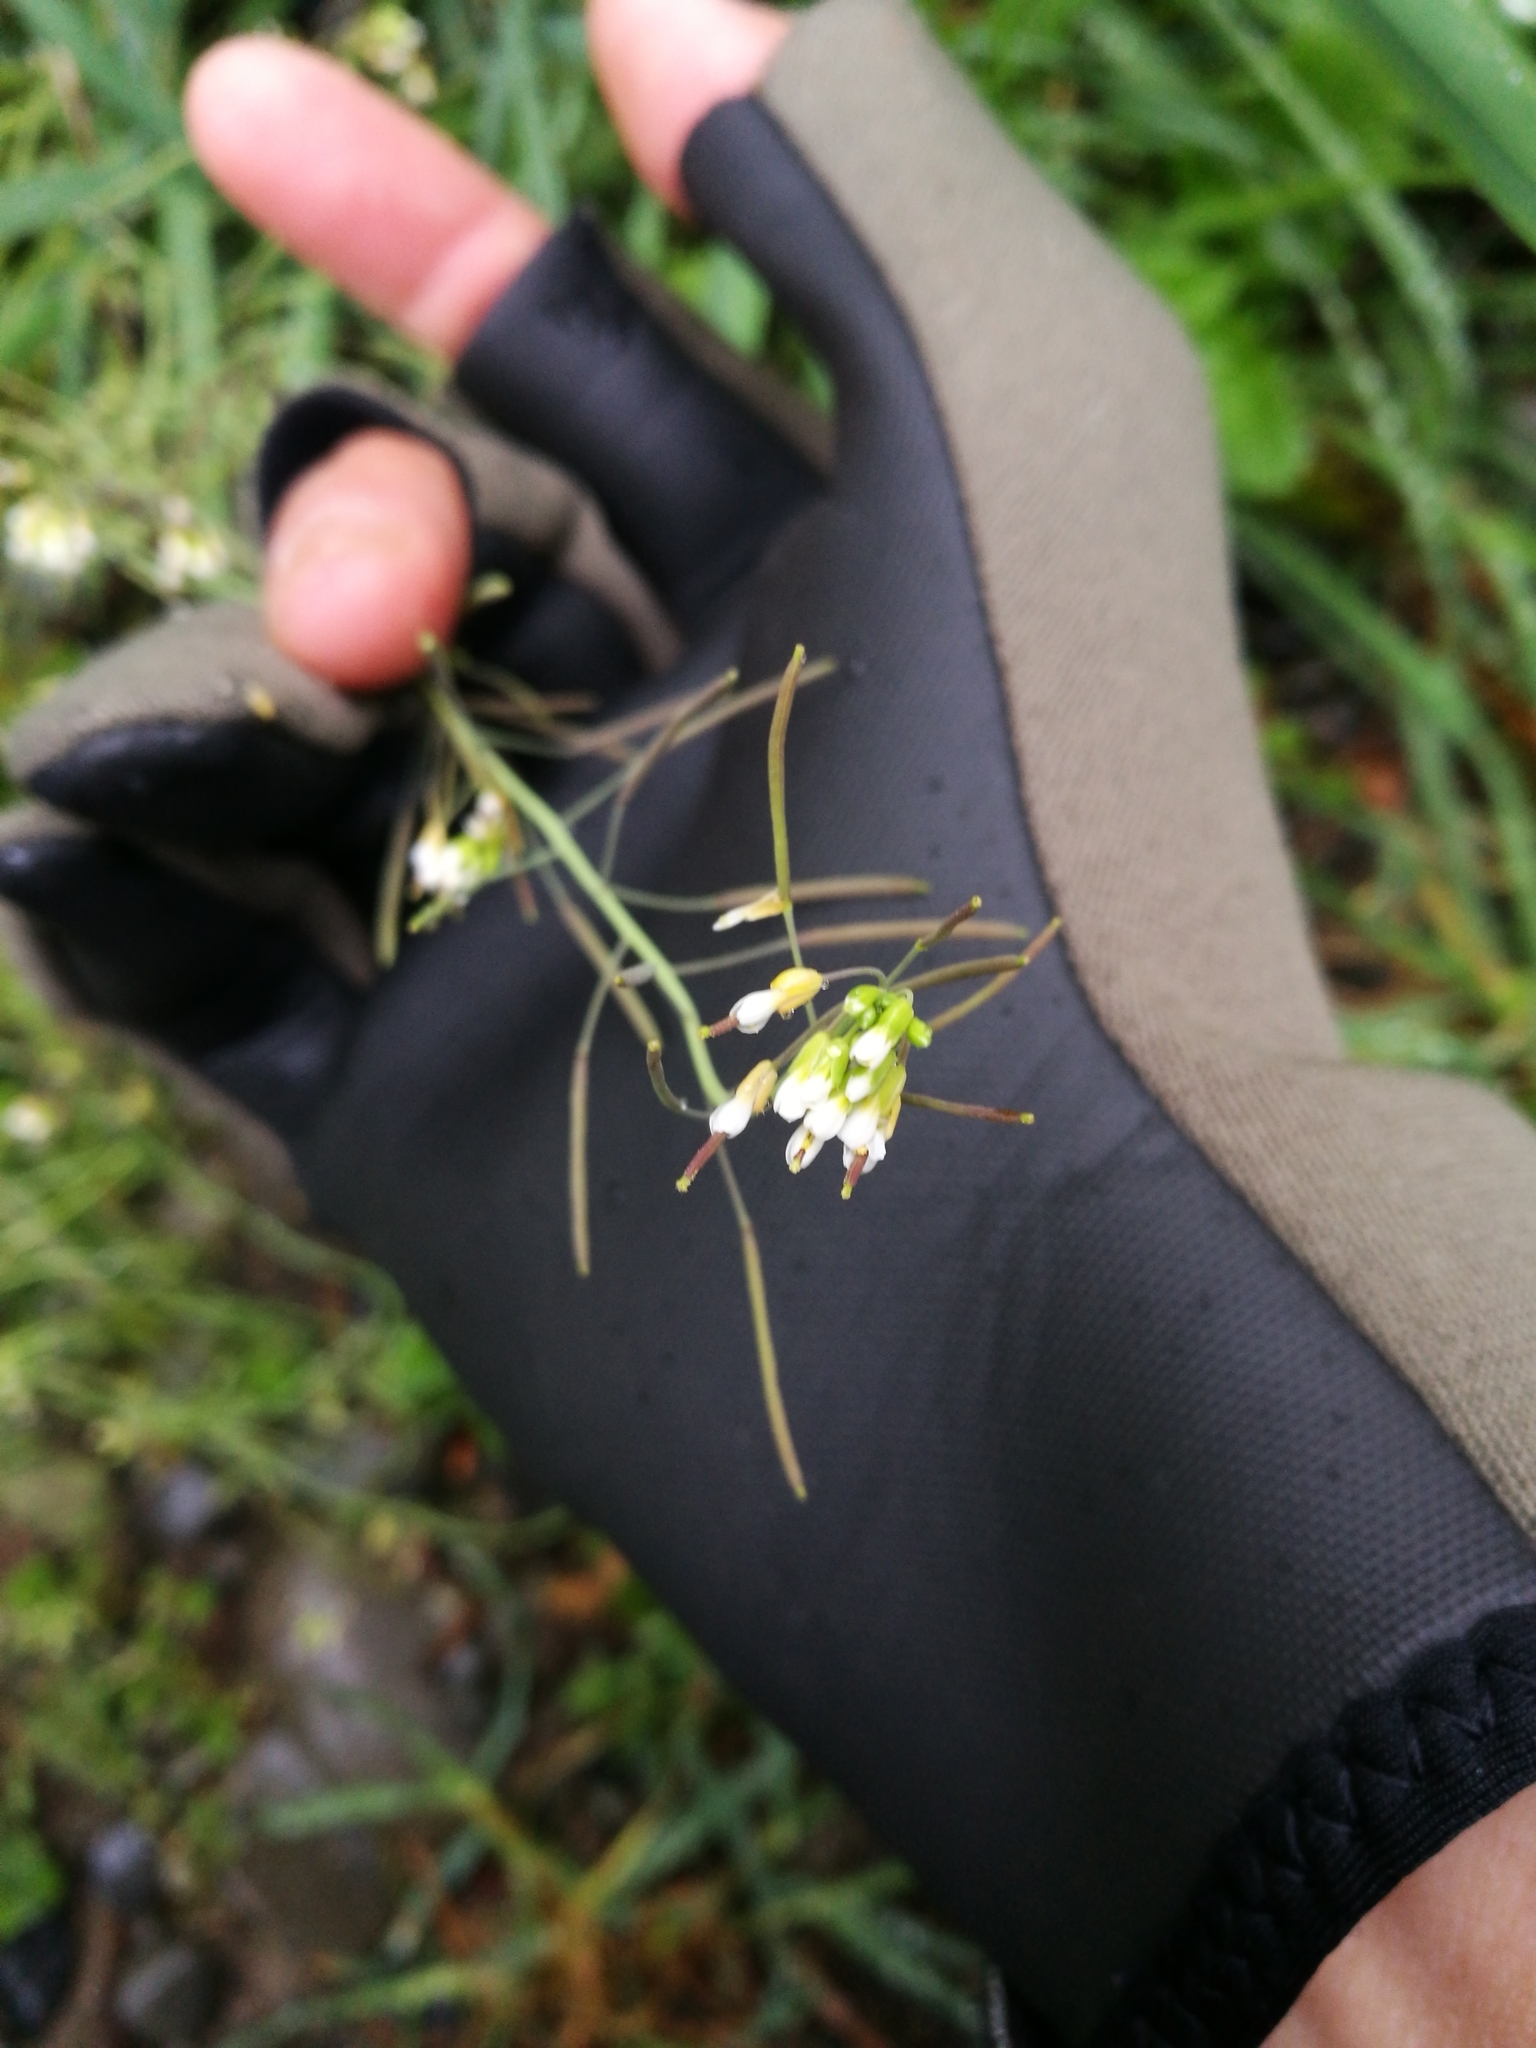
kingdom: Plantae
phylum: Tracheophyta
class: Magnoliopsida
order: Brassicales
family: Brassicaceae
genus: Arabidopsis
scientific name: Arabidopsis thaliana
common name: Thale cress
